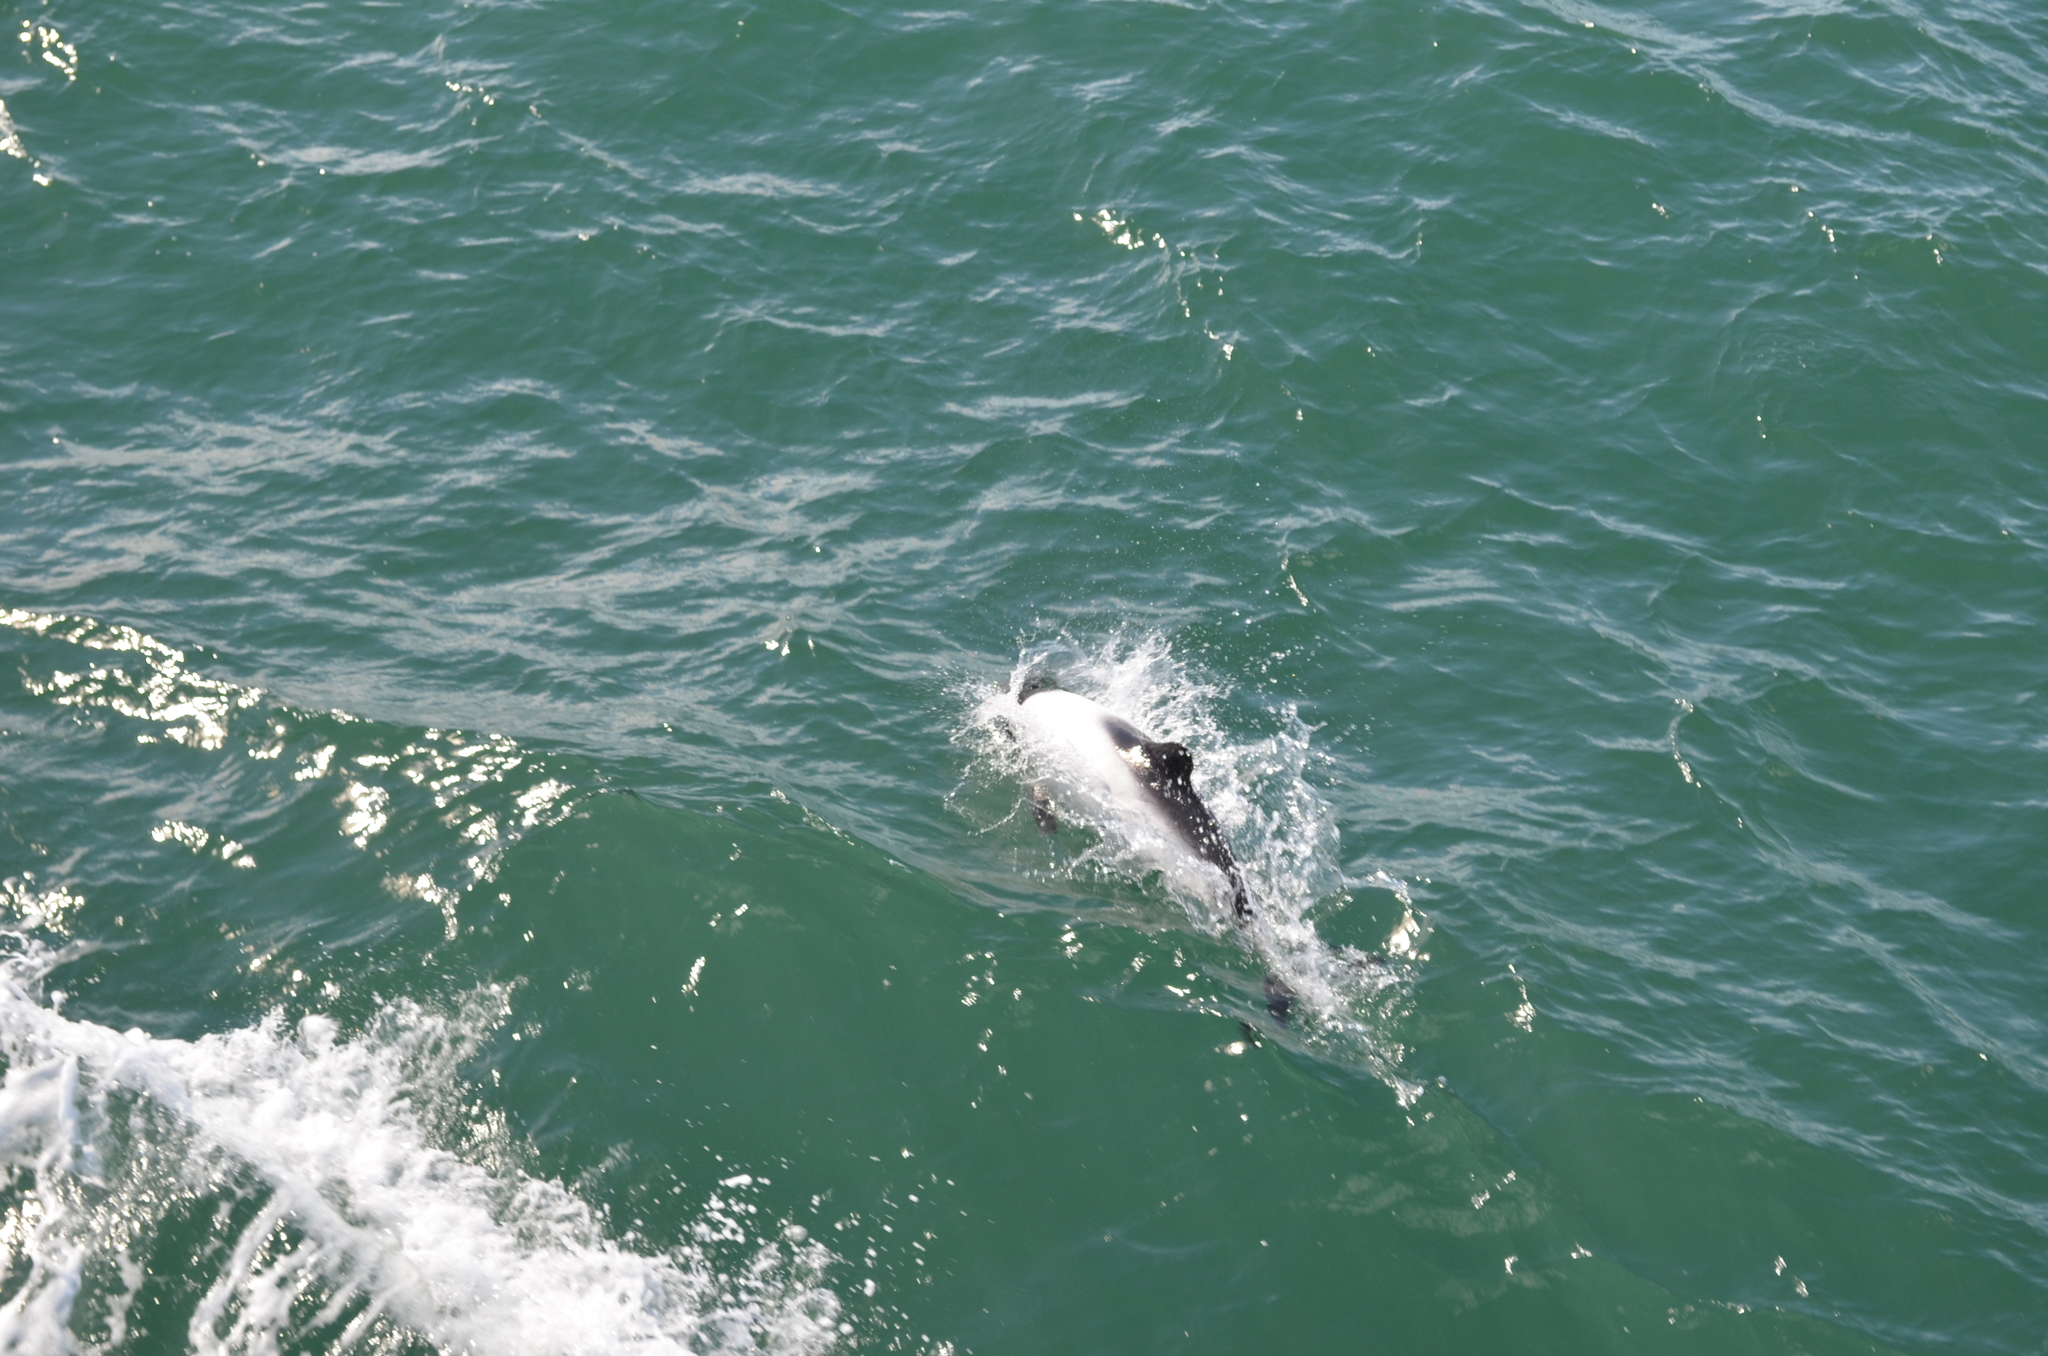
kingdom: Animalia
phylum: Chordata
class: Mammalia
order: Cetacea
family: Delphinidae
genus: Cephalorhynchus
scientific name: Cephalorhynchus commersonii
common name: Commerson's dolphin
